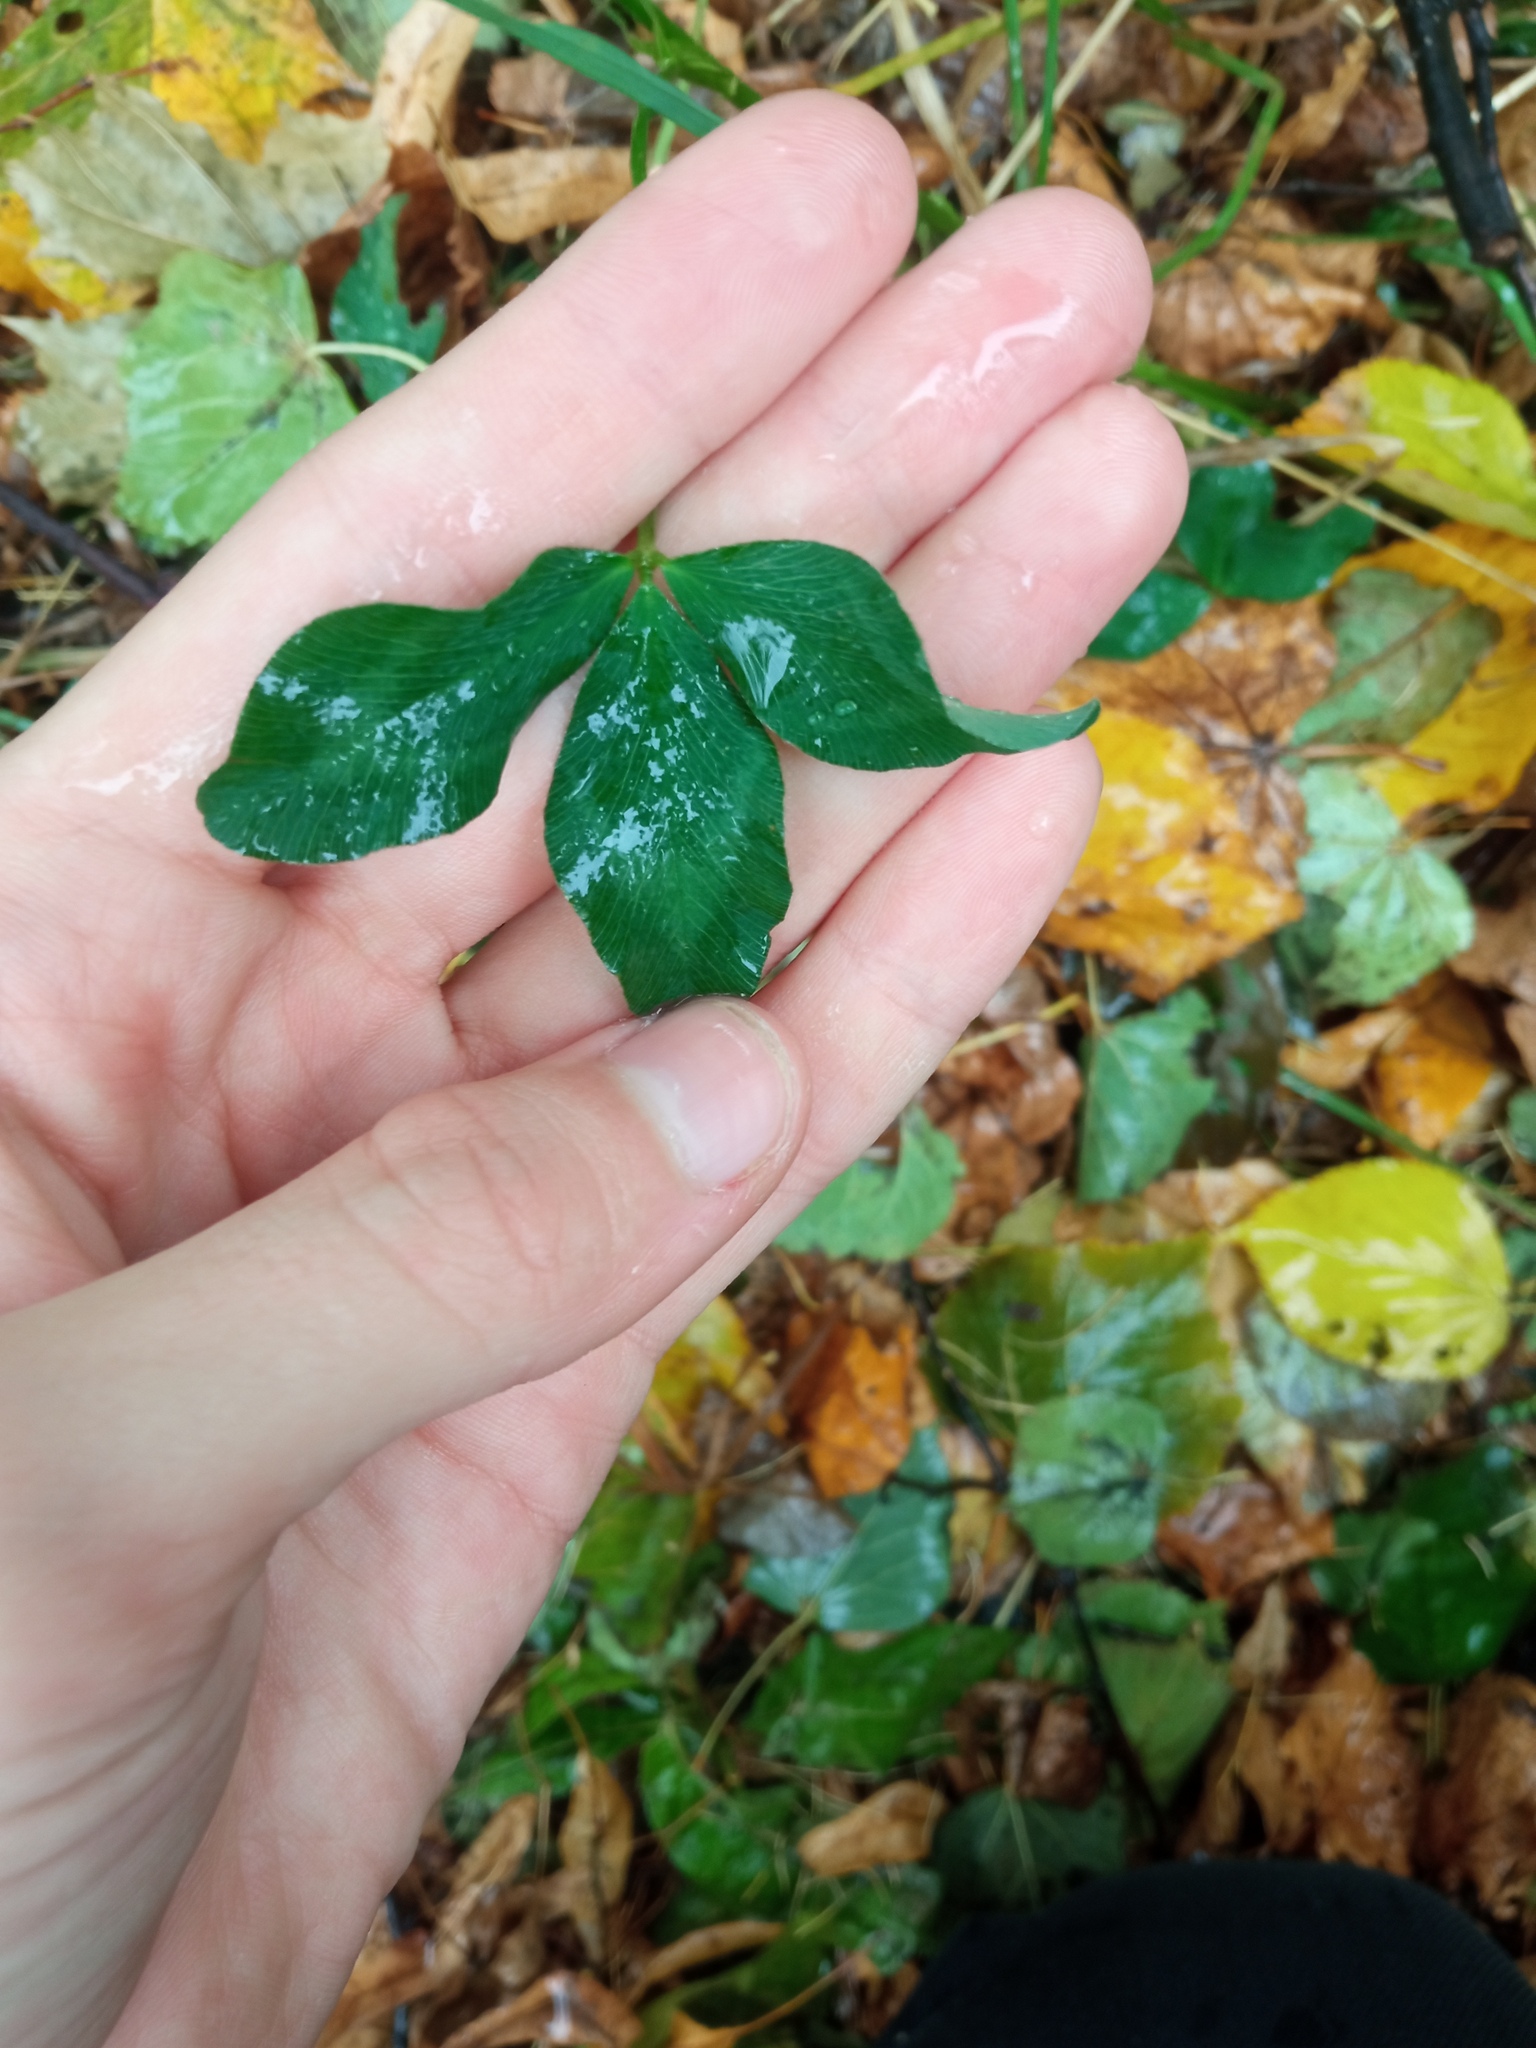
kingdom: Plantae
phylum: Tracheophyta
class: Magnoliopsida
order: Fabales
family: Fabaceae
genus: Trifolium
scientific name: Trifolium pratense
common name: Red clover
